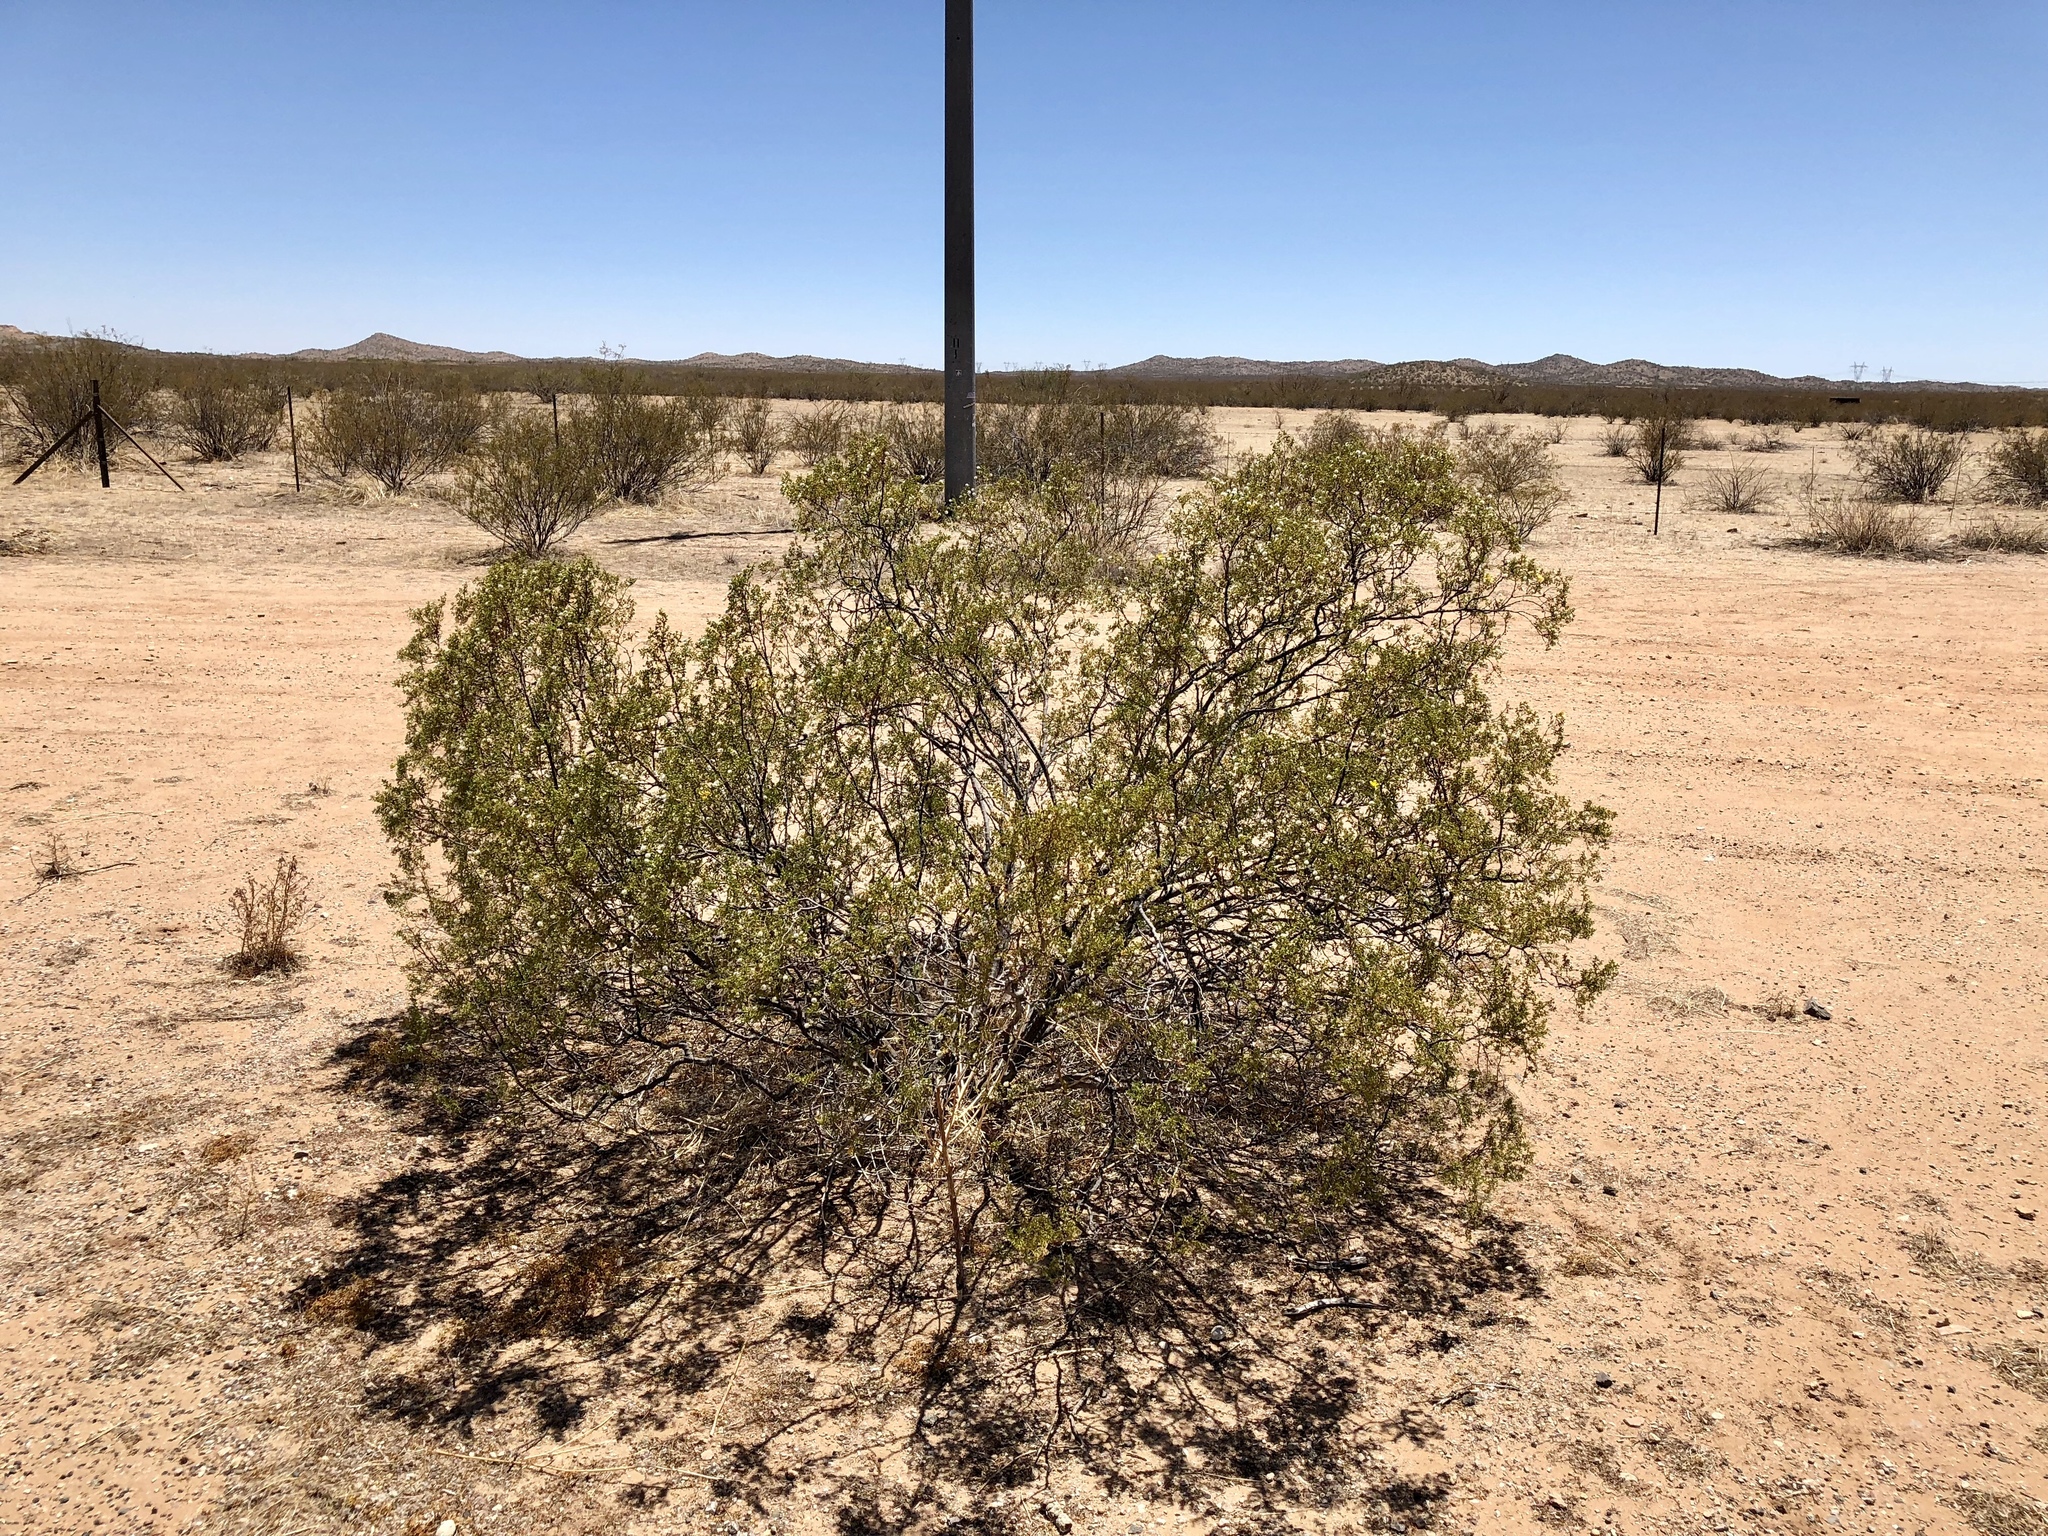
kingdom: Plantae
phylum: Tracheophyta
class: Magnoliopsida
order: Zygophyllales
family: Zygophyllaceae
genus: Larrea
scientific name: Larrea tridentata
